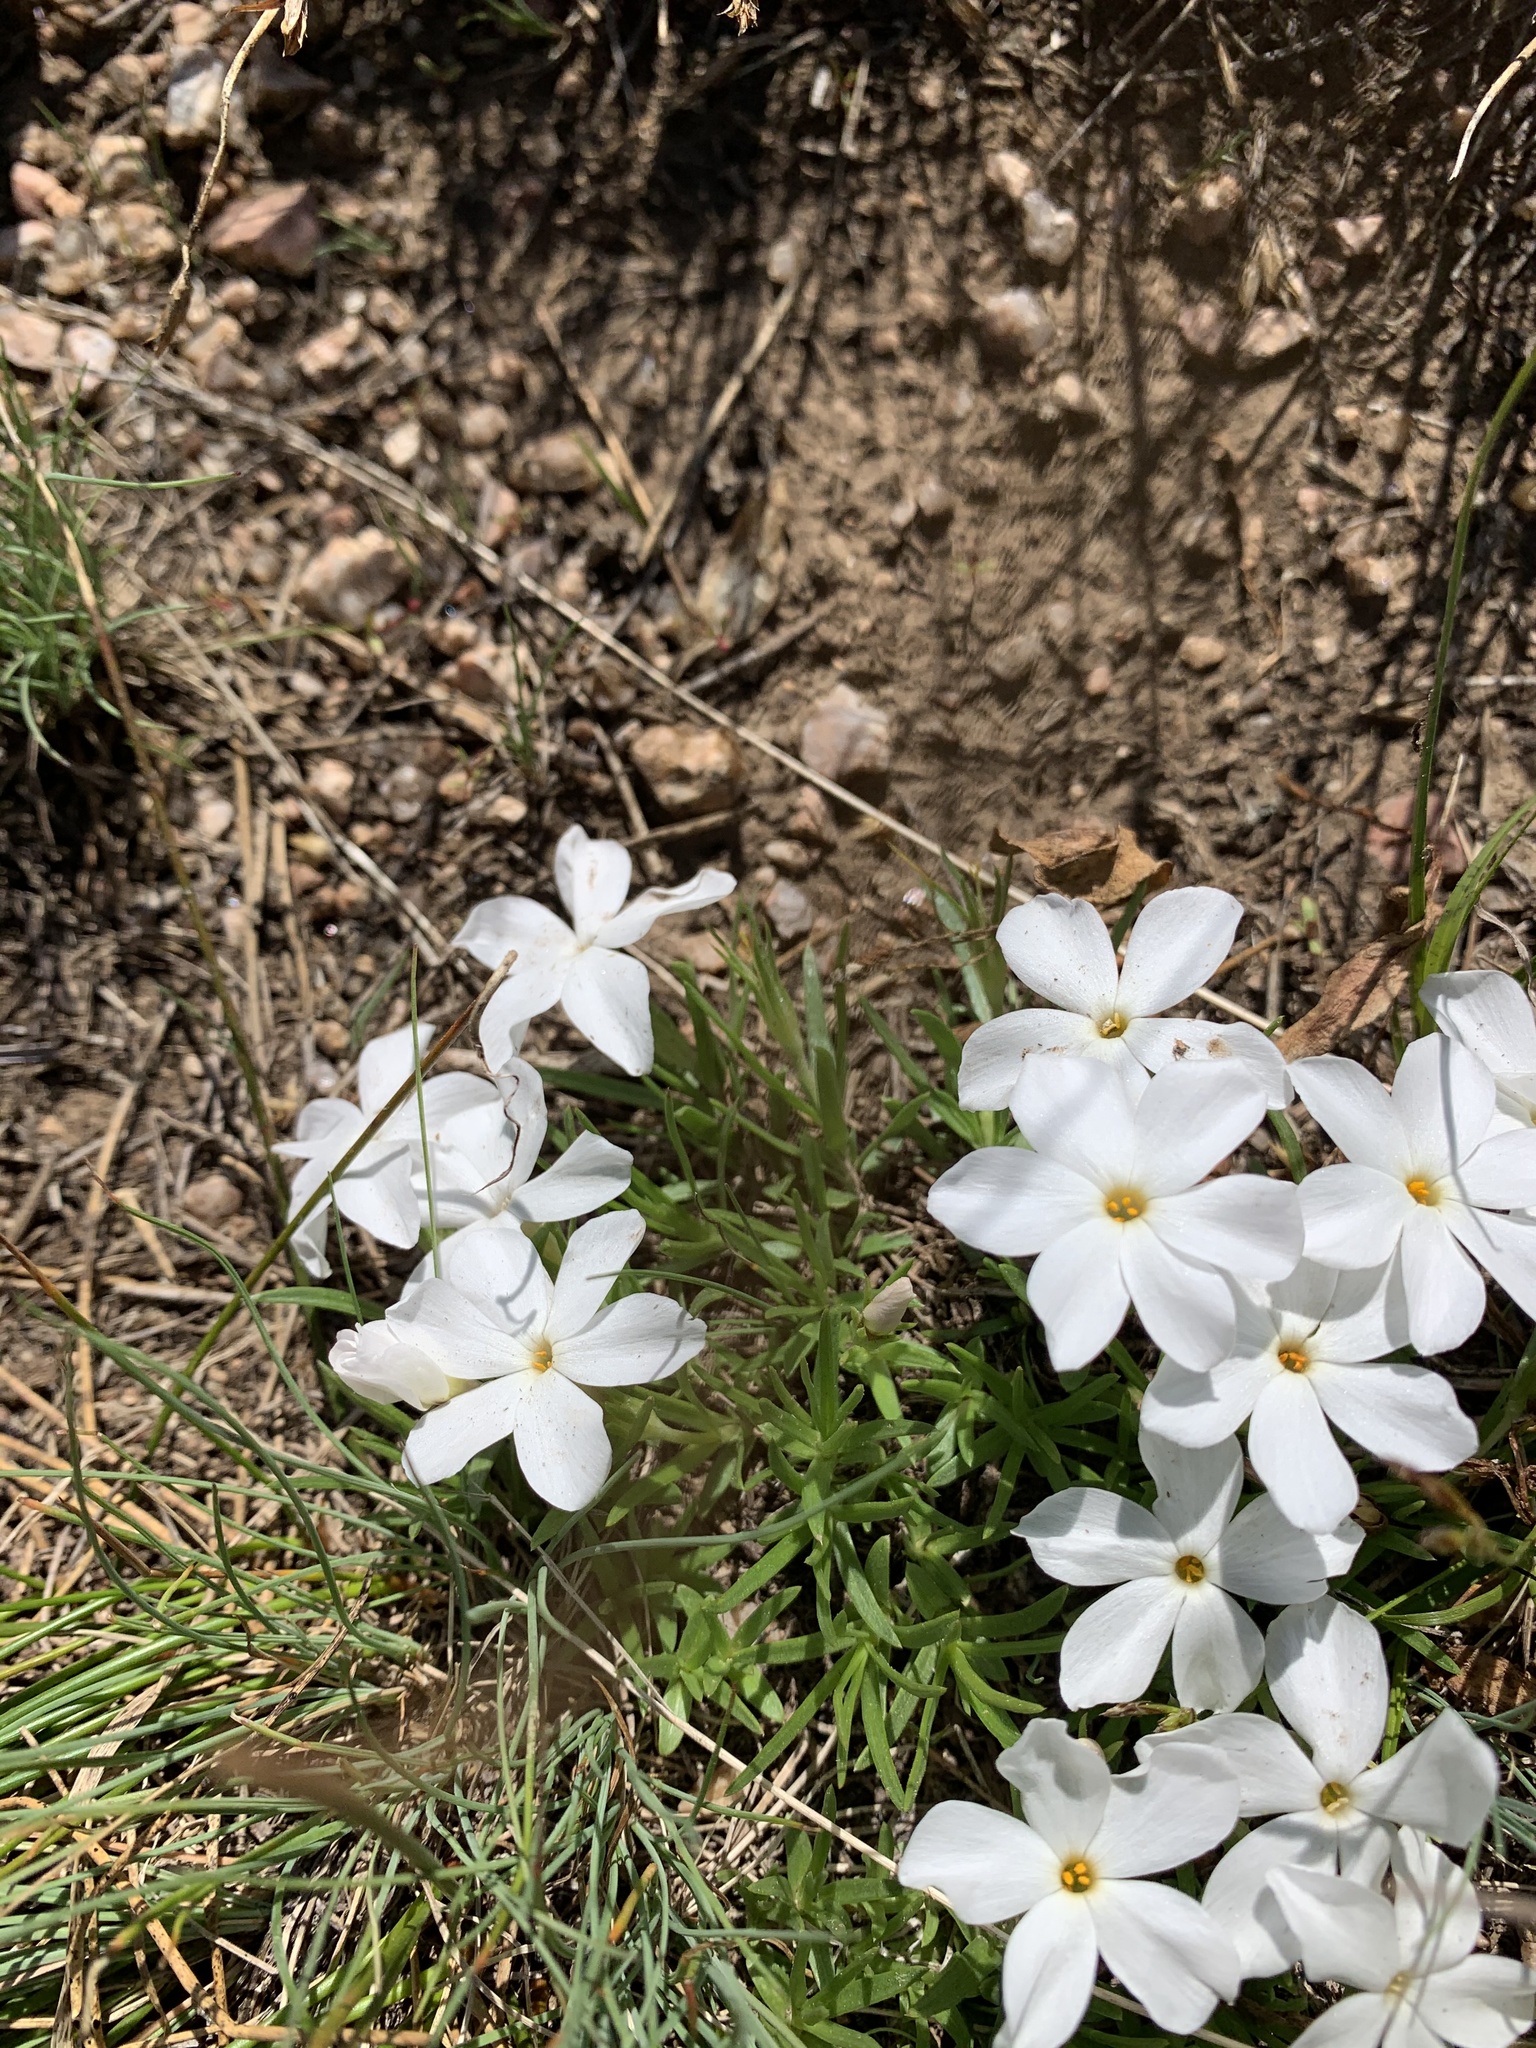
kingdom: Plantae
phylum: Tracheophyta
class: Magnoliopsida
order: Ericales
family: Polemoniaceae
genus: Phlox
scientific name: Phlox multiflora
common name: Rocky mountain phlox
